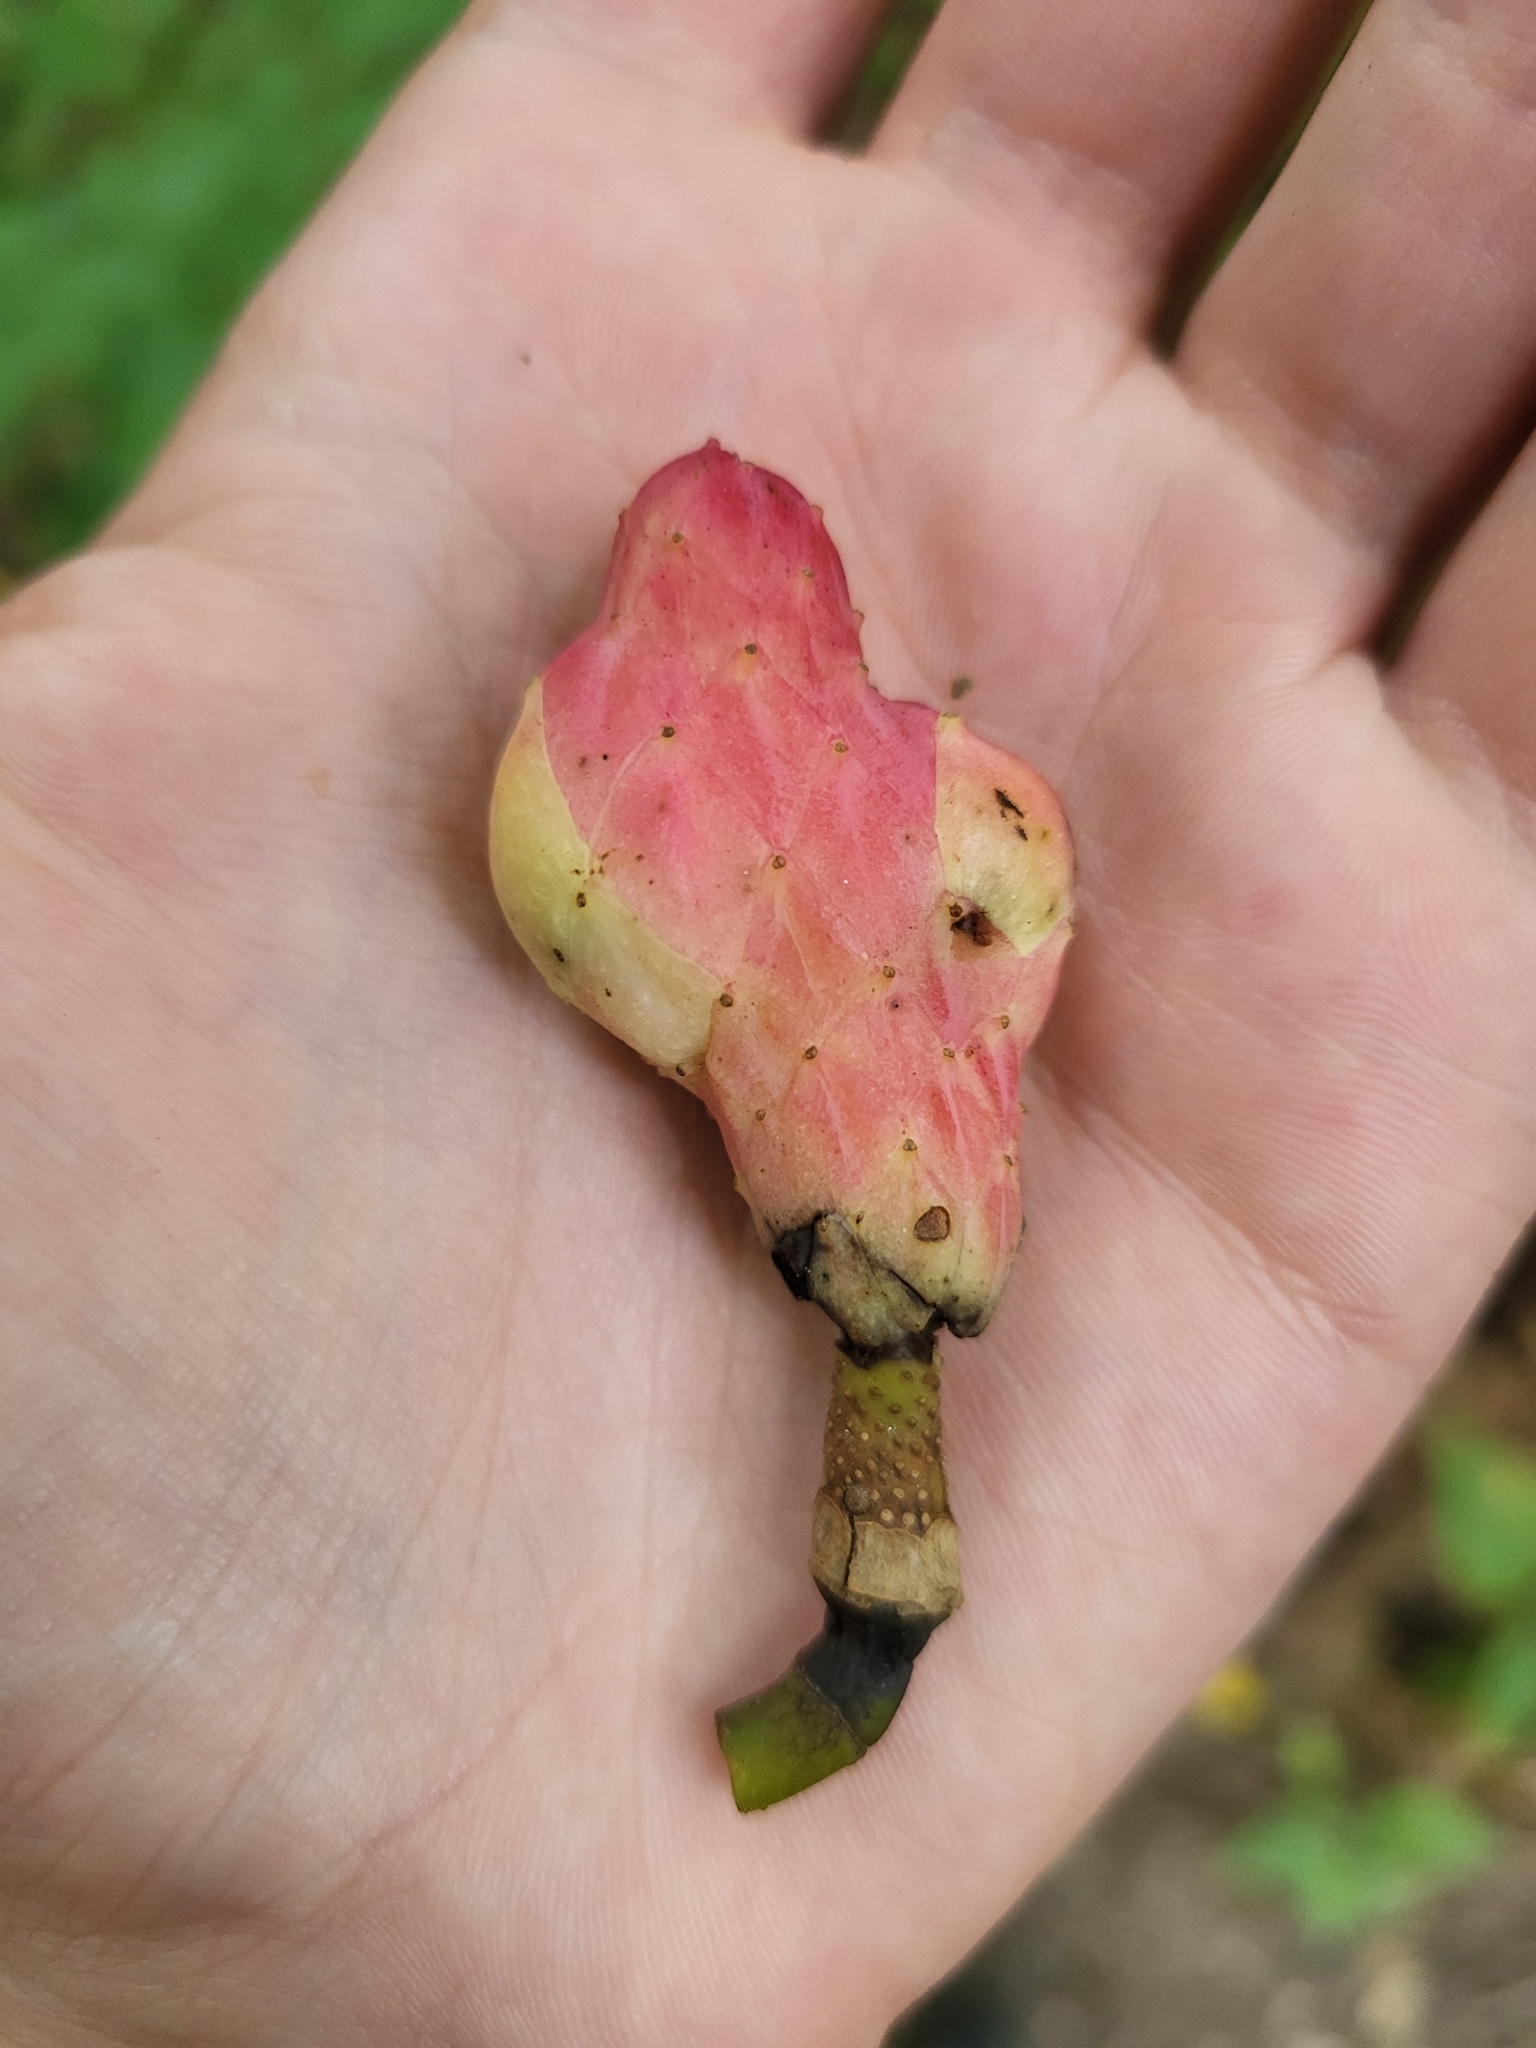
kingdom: Plantae
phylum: Tracheophyta
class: Magnoliopsida
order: Magnoliales
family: Magnoliaceae
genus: Magnolia
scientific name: Magnolia acuminata
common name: Cucumber magnolia
